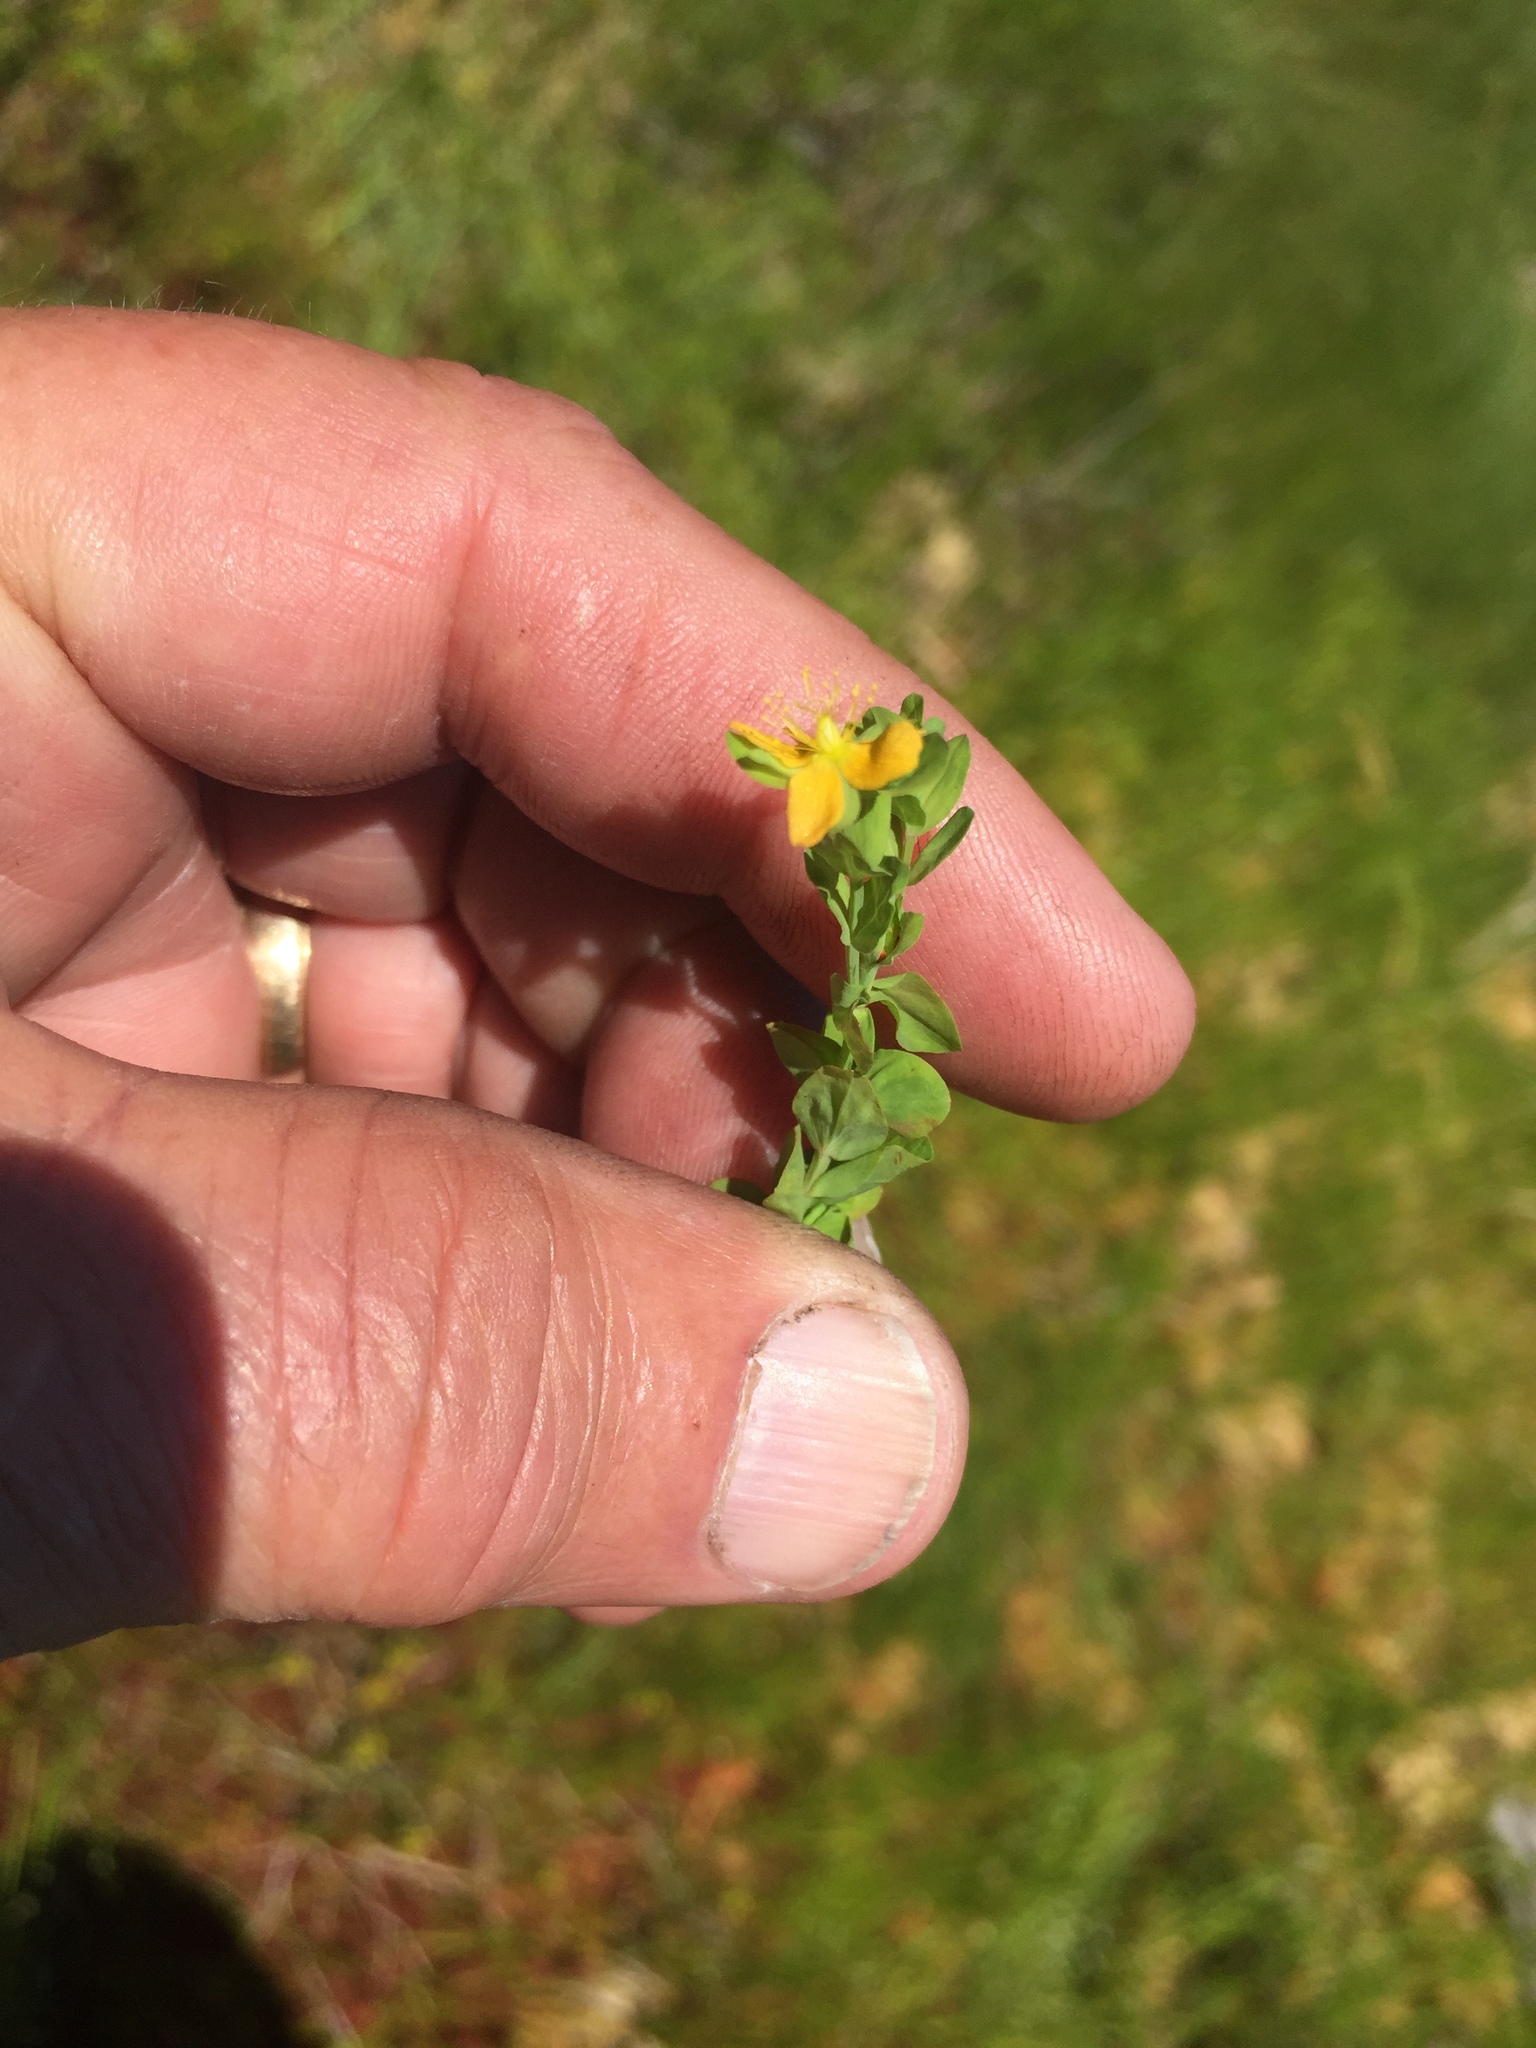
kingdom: Plantae
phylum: Tracheophyta
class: Magnoliopsida
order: Malpighiales
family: Hypericaceae
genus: Hypericum
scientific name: Hypericum anagalloides
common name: Bog st. john's-wort
